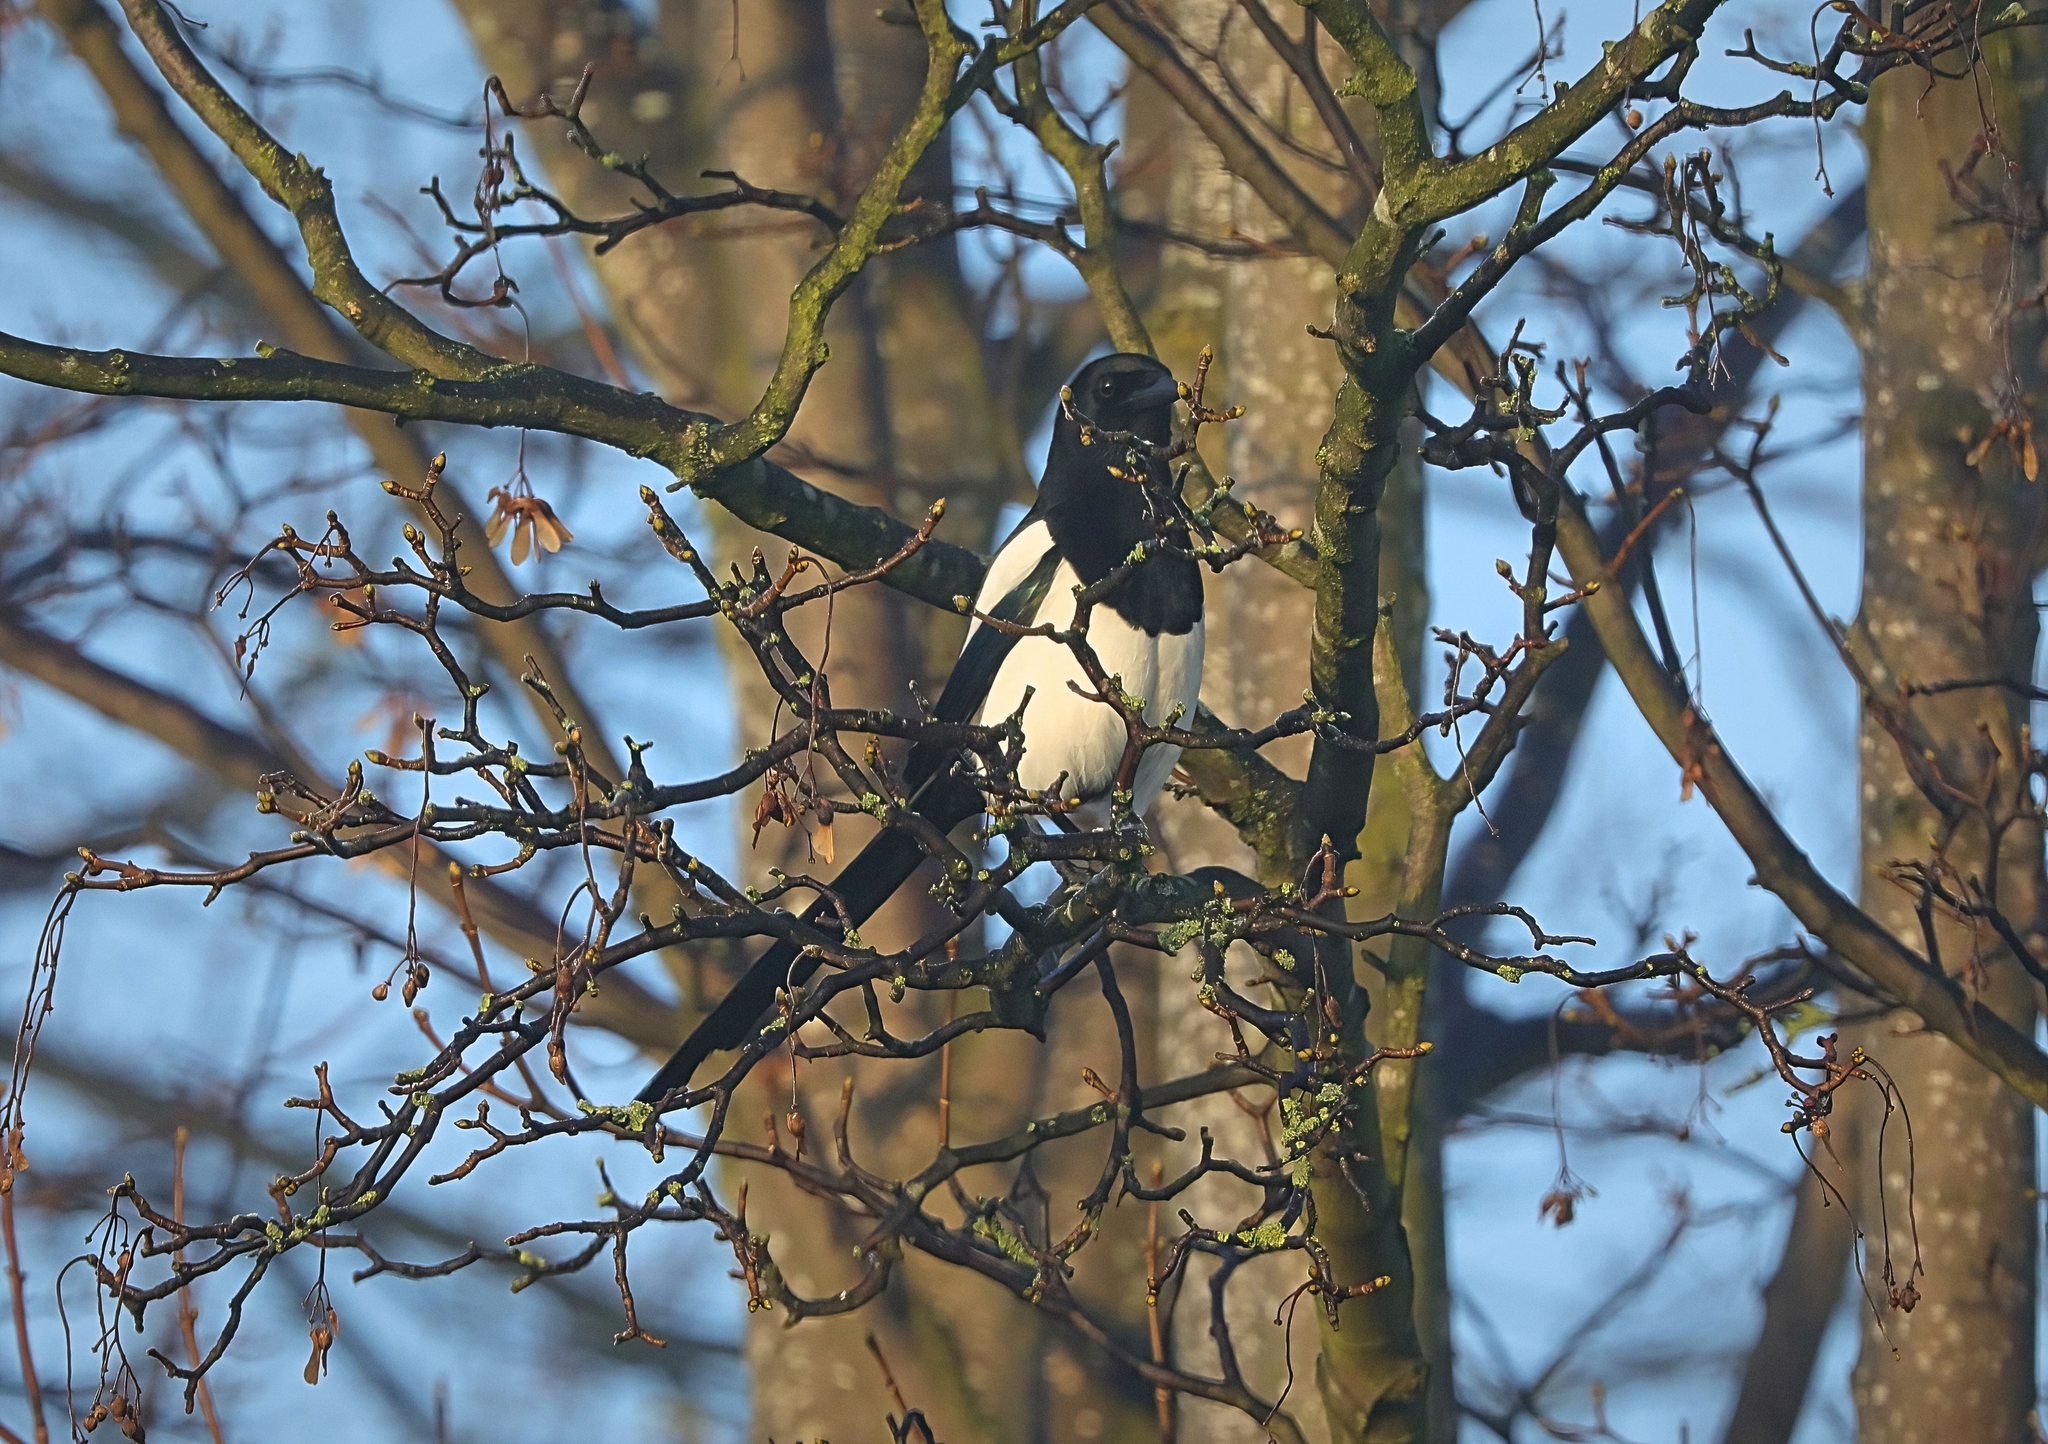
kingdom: Animalia
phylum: Chordata
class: Aves
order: Passeriformes
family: Corvidae
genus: Pica
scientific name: Pica pica
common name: Eurasian magpie
